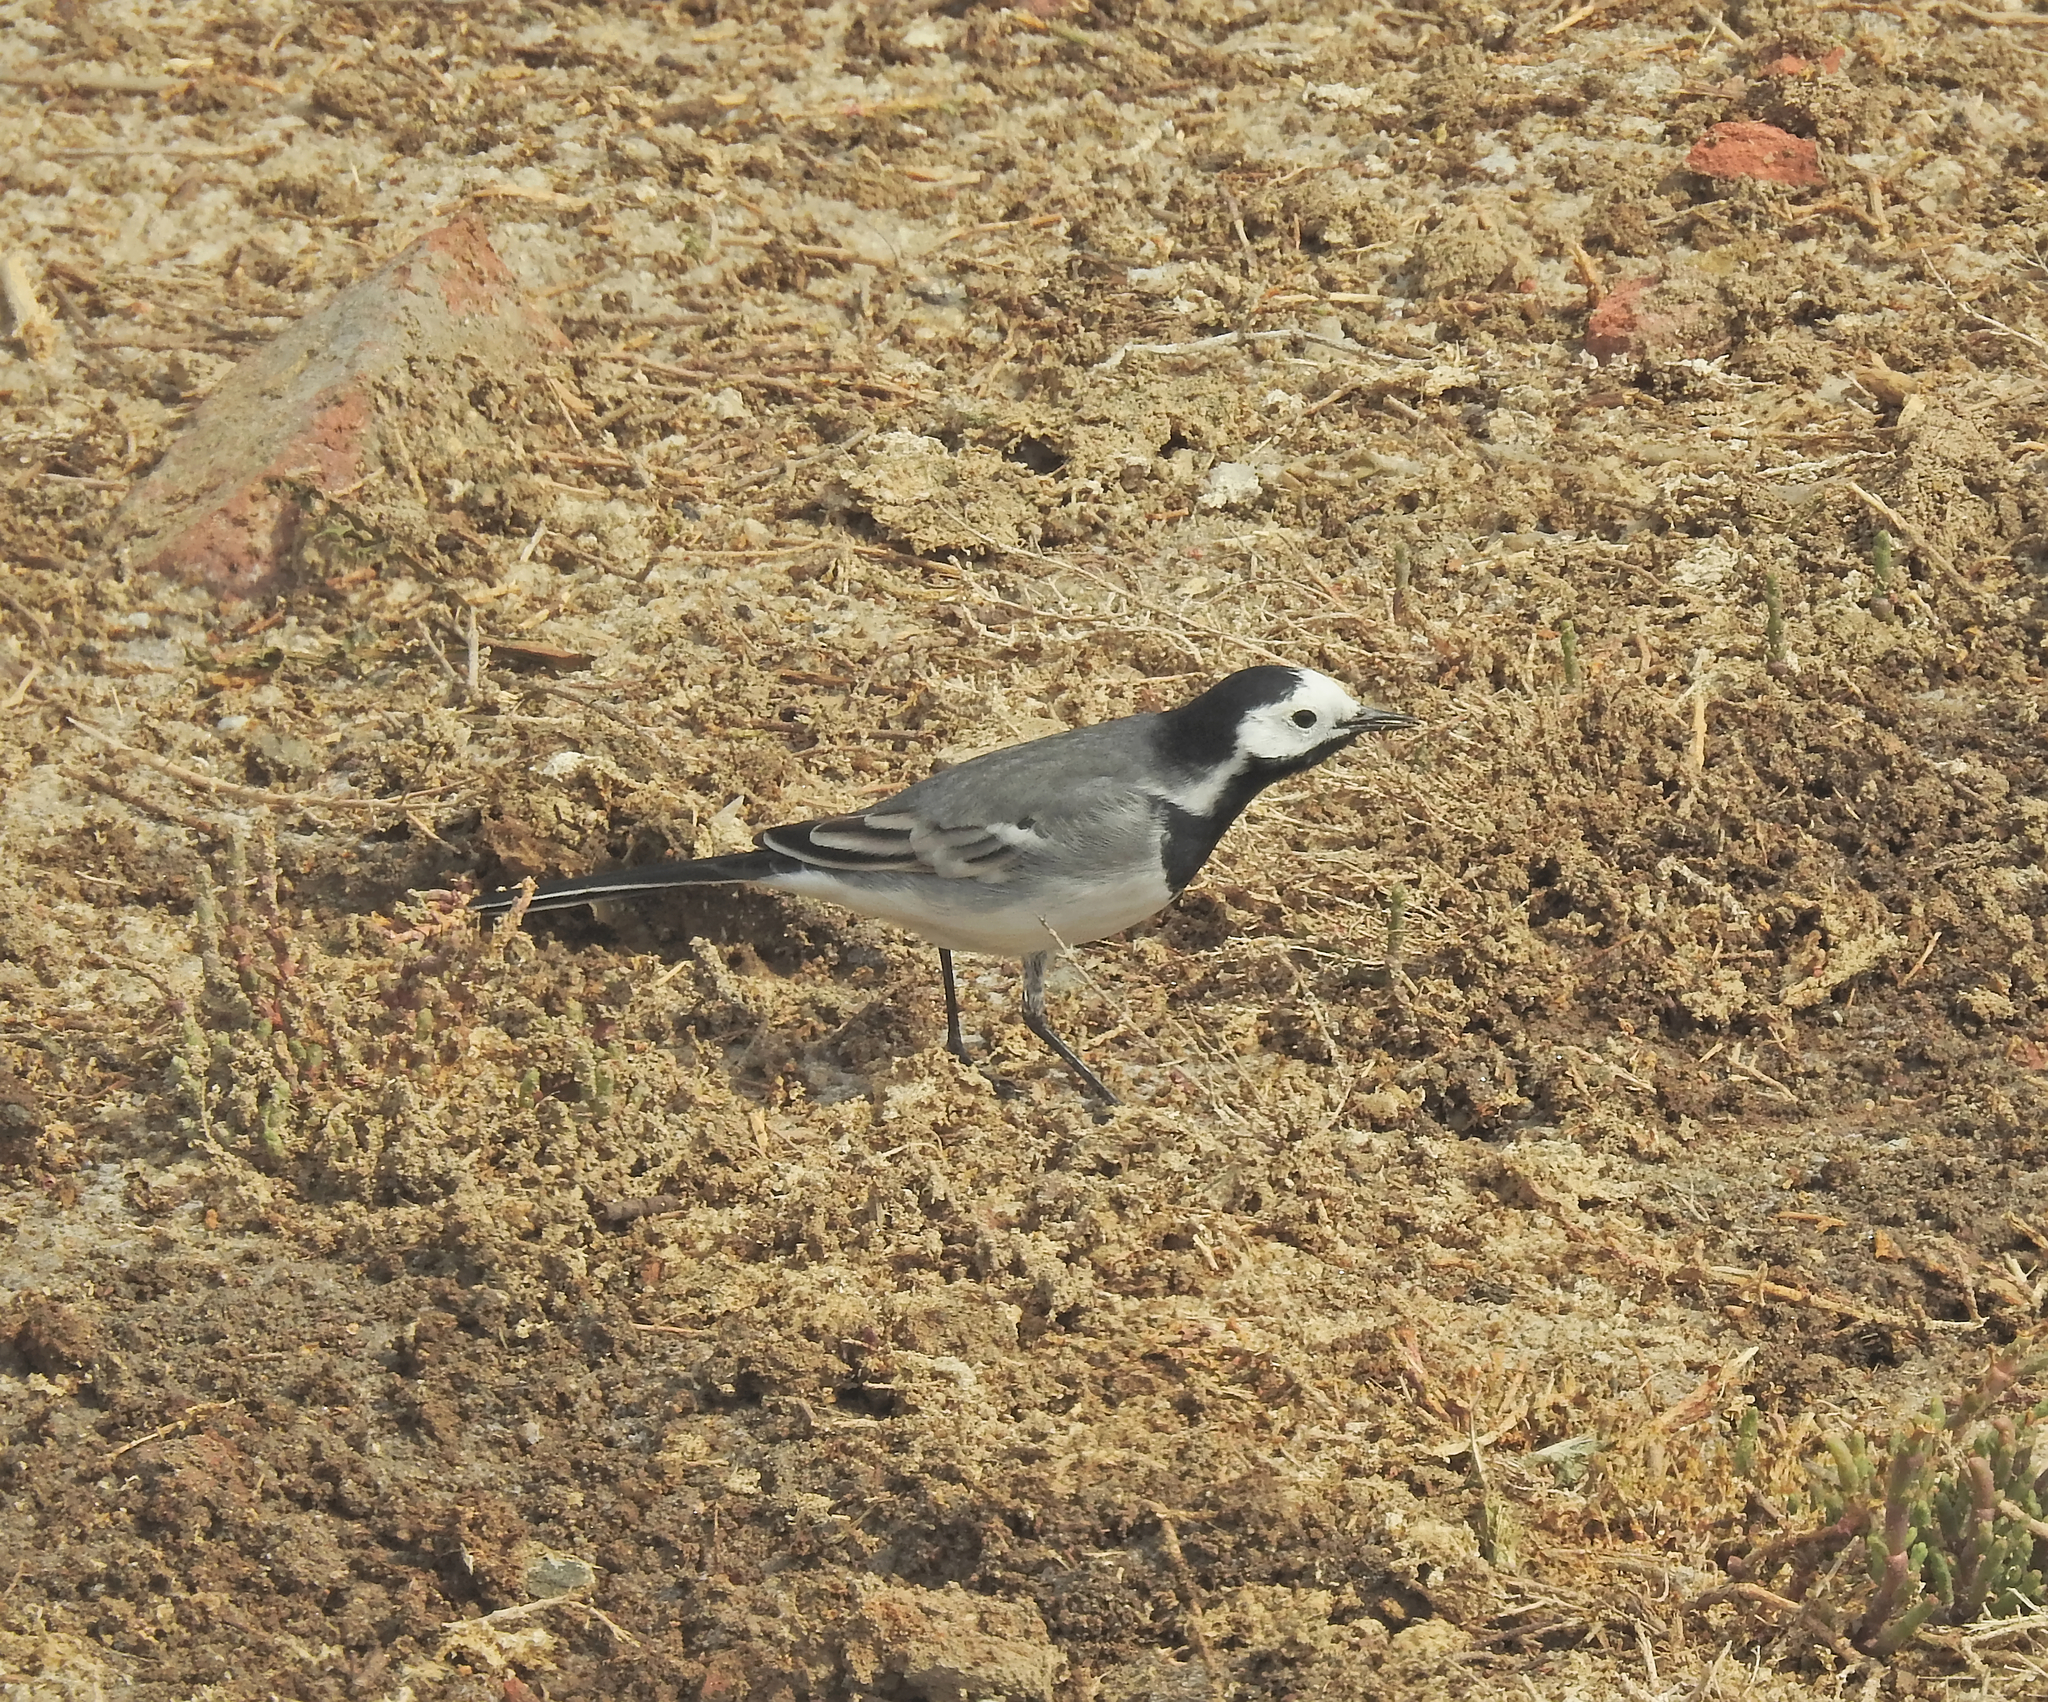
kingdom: Animalia
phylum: Chordata
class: Aves
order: Passeriformes
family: Motacillidae
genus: Motacilla
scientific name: Motacilla alba
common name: White wagtail
